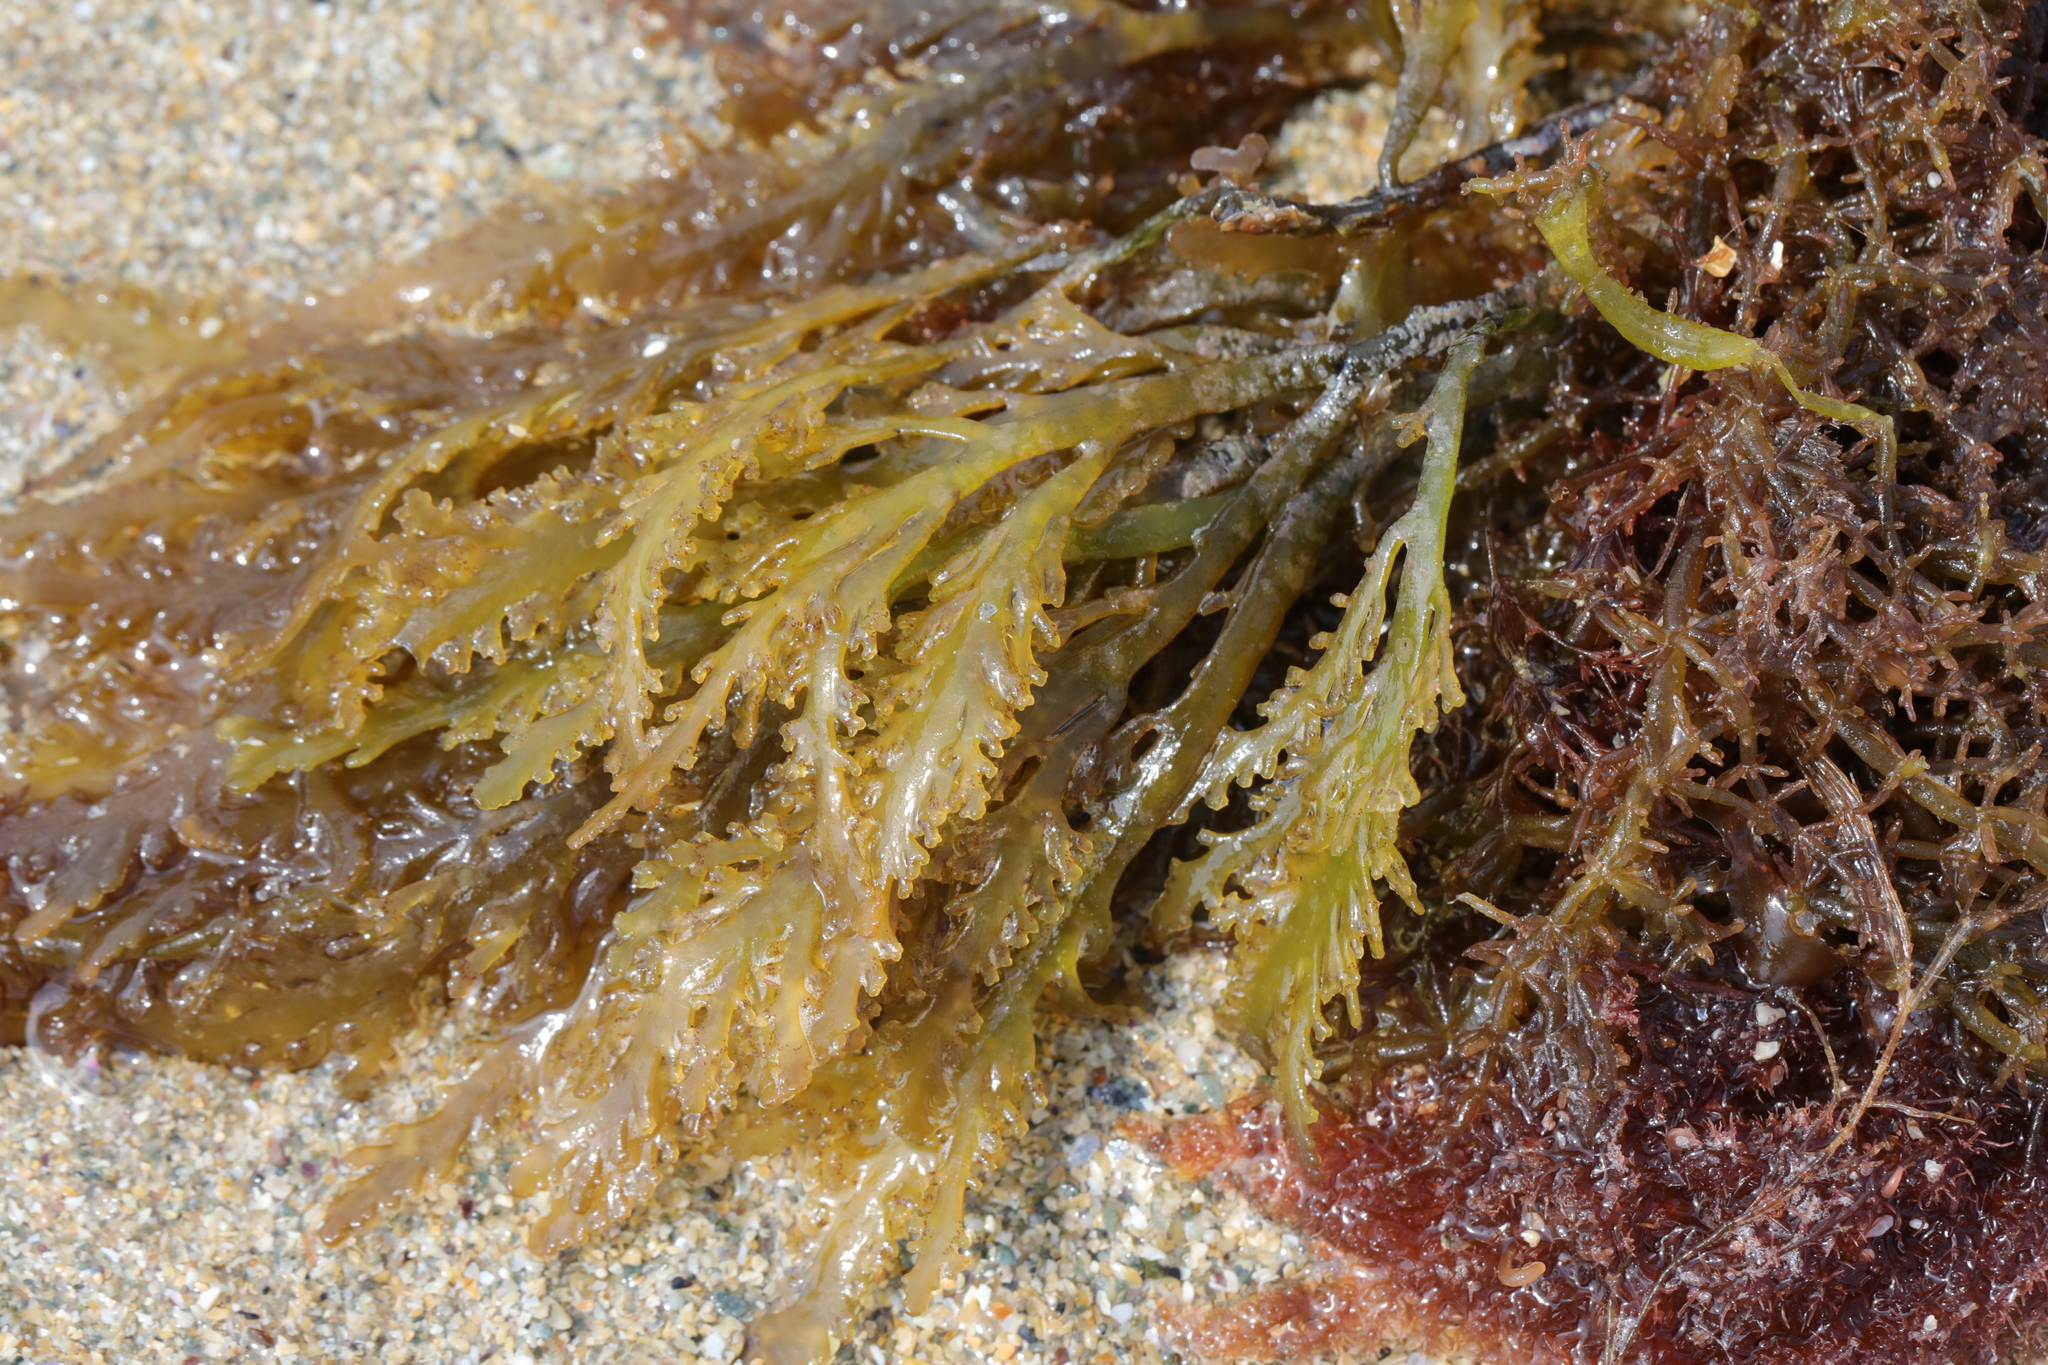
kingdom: Plantae
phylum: Rhodophyta
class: Florideophyceae
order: Ceramiales
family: Rhodomelaceae
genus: Laurencia
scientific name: Laurencia Osmundea pinnatifida
